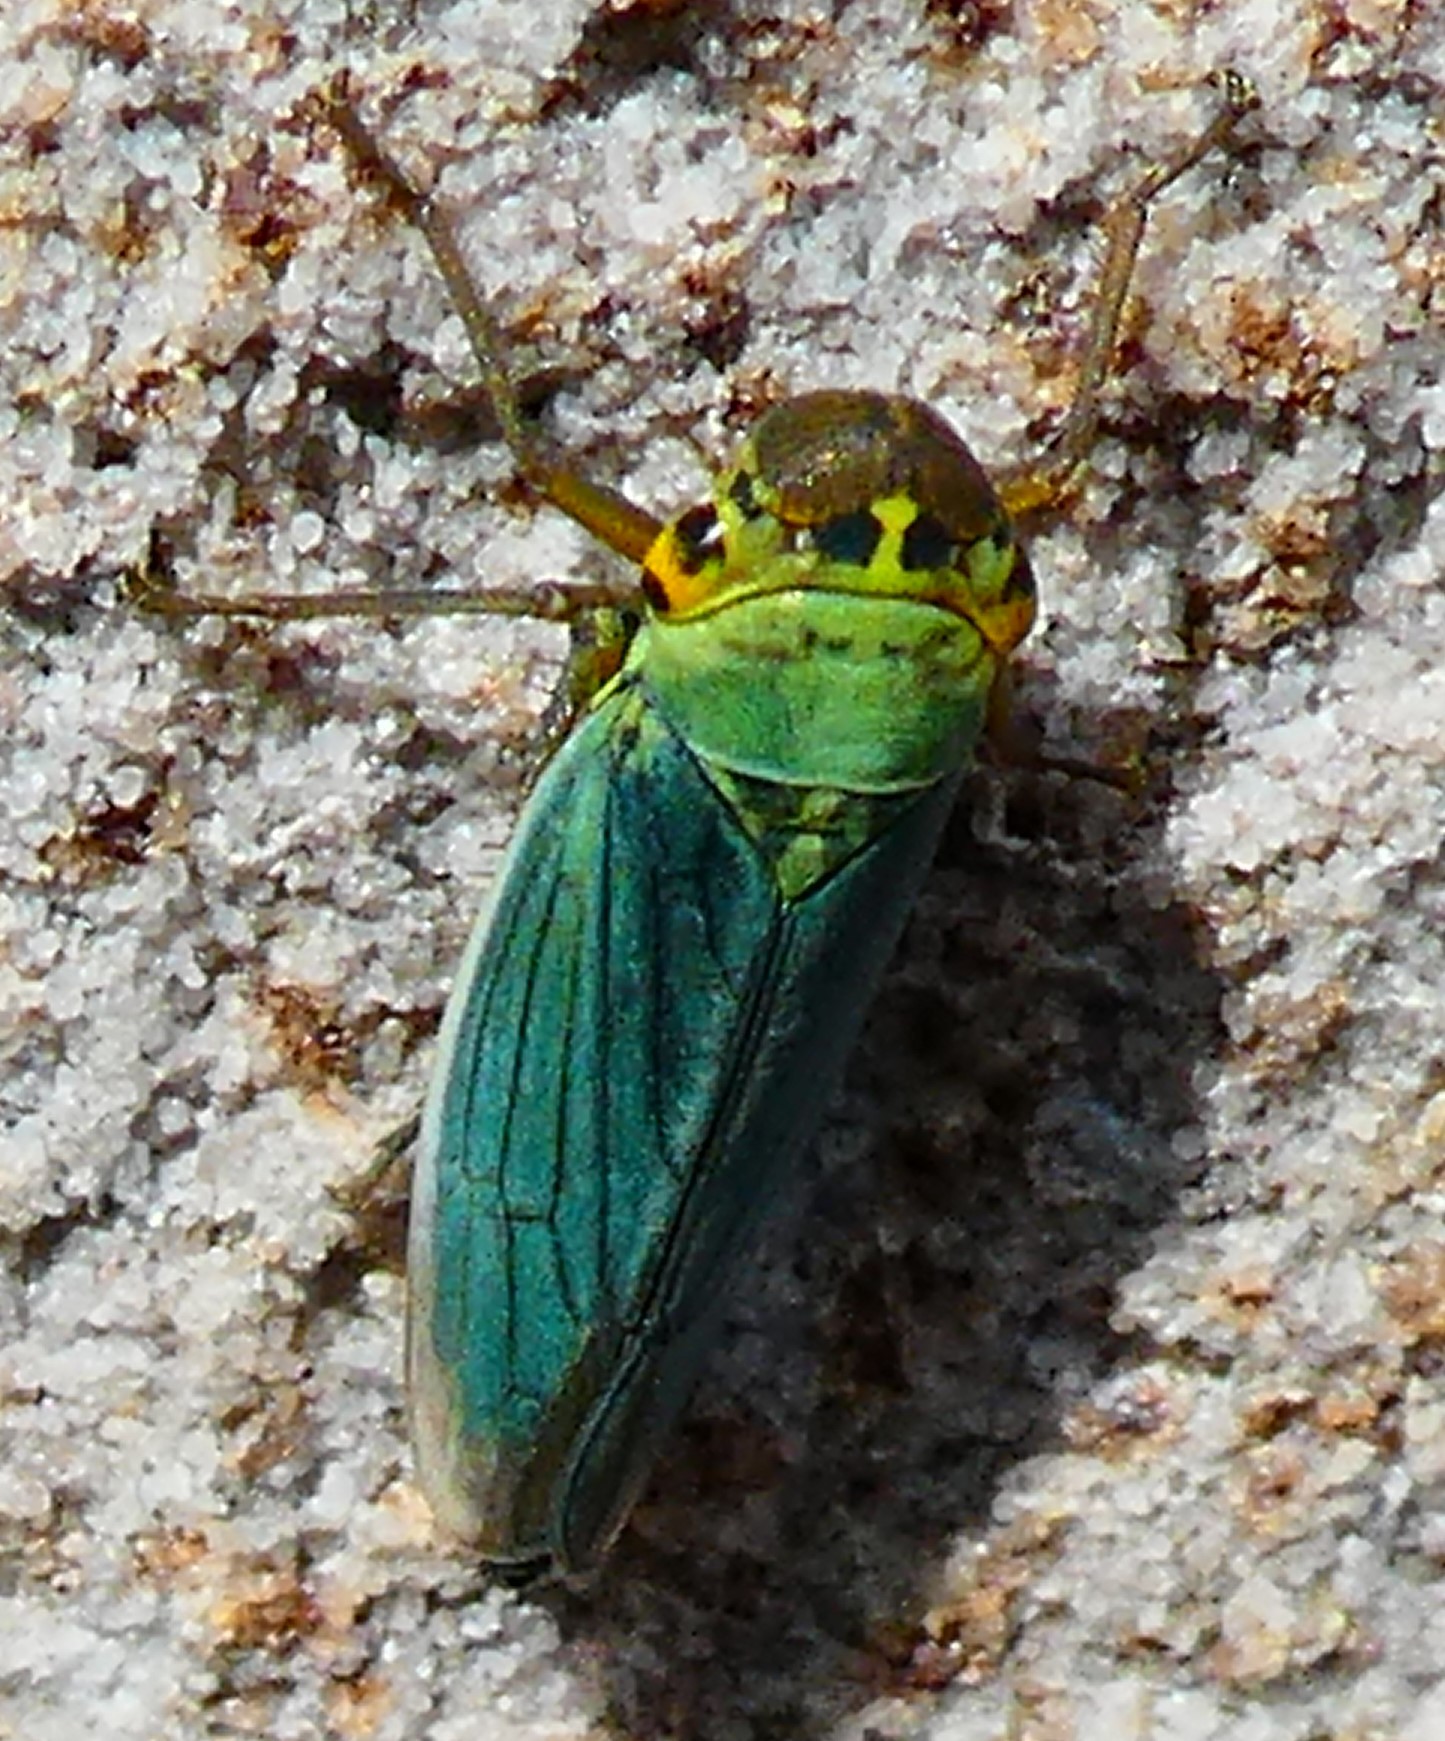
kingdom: Animalia
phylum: Arthropoda
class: Insecta
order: Hemiptera
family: Cicadellidae
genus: Cicadella
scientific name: Cicadella viridis
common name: Leafhopper
